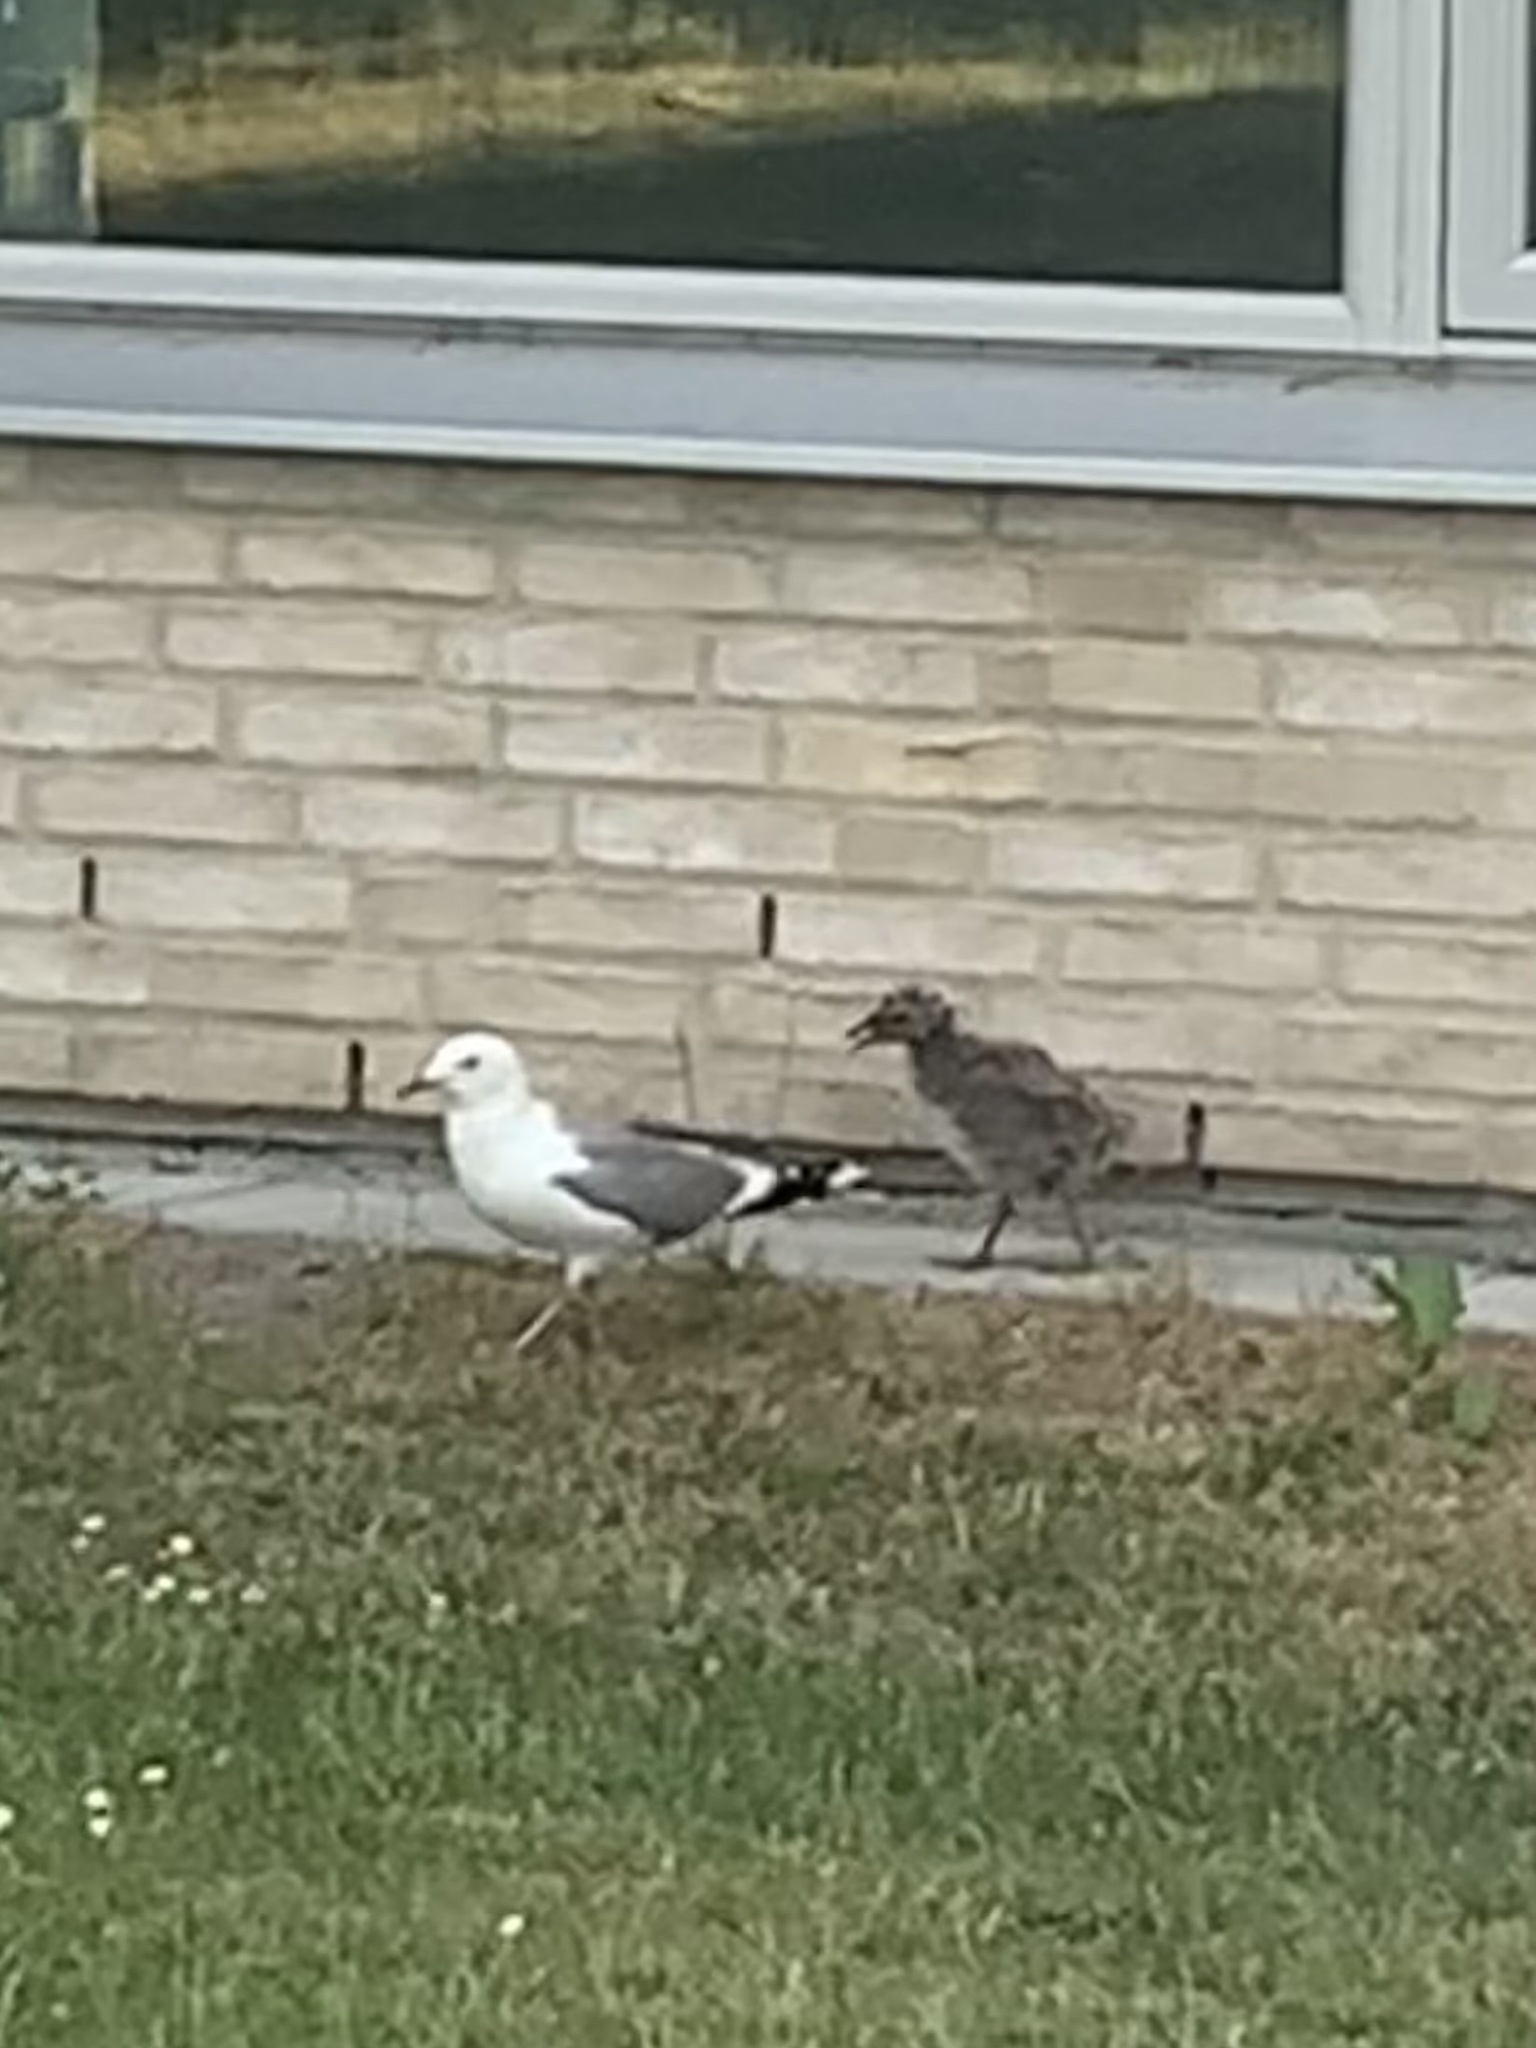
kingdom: Animalia
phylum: Chordata
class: Aves
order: Charadriiformes
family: Laridae
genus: Larus
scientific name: Larus canus
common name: Mew gull
